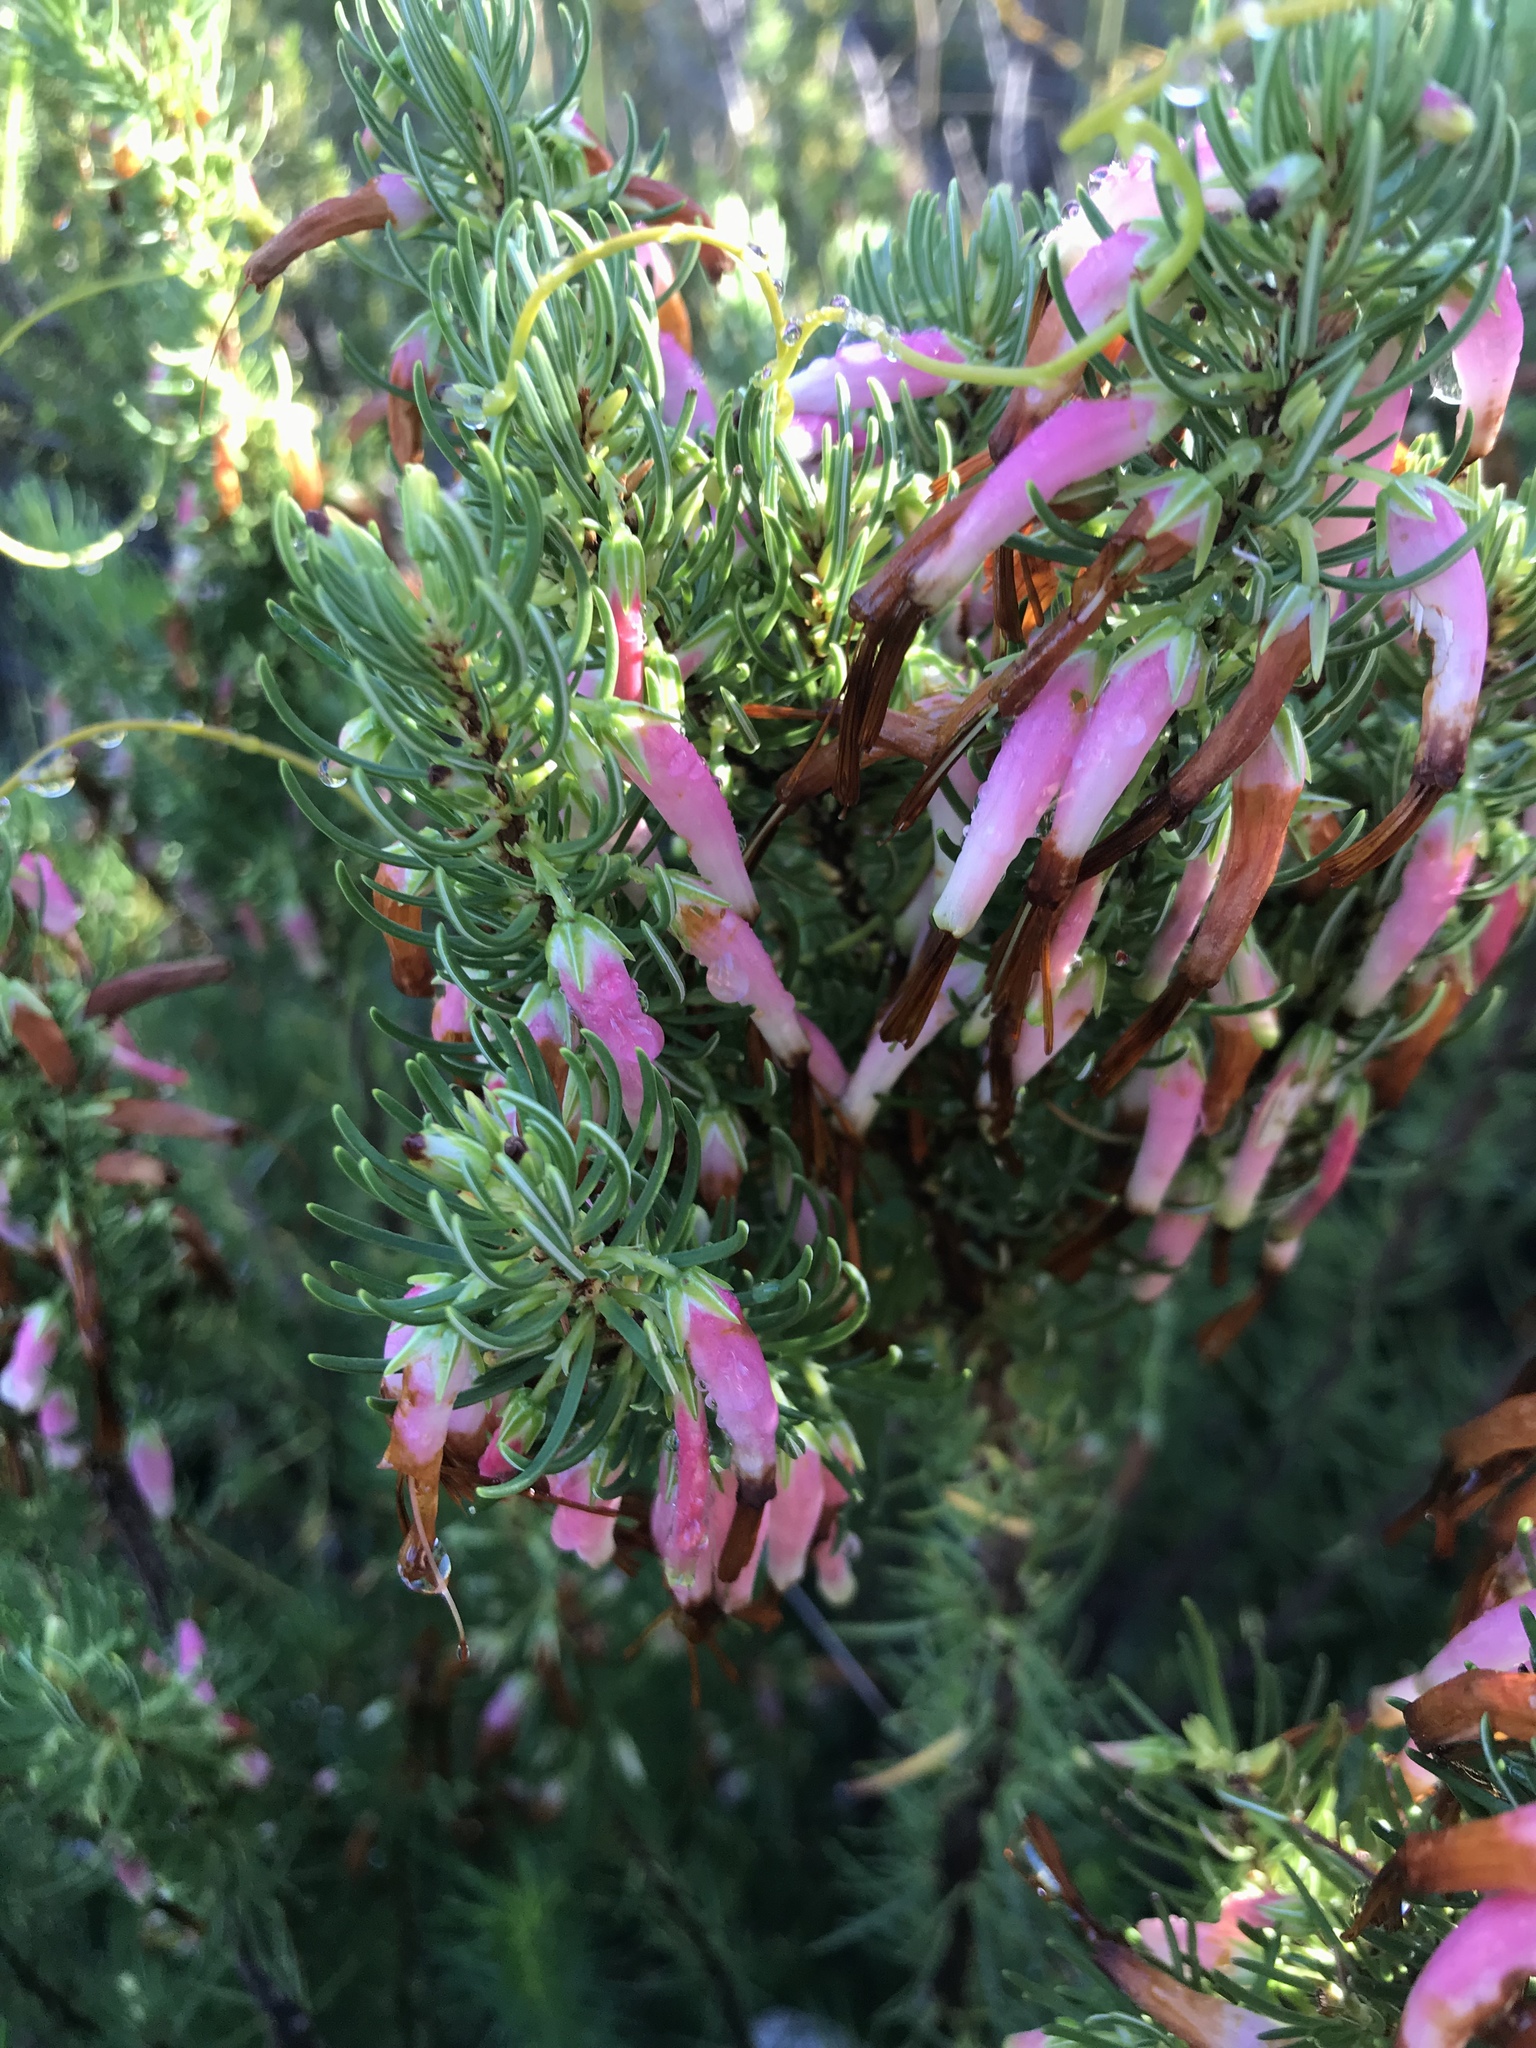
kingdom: Plantae
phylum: Tracheophyta
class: Magnoliopsida
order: Ericales
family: Ericaceae
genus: Erica
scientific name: Erica plukenetii
